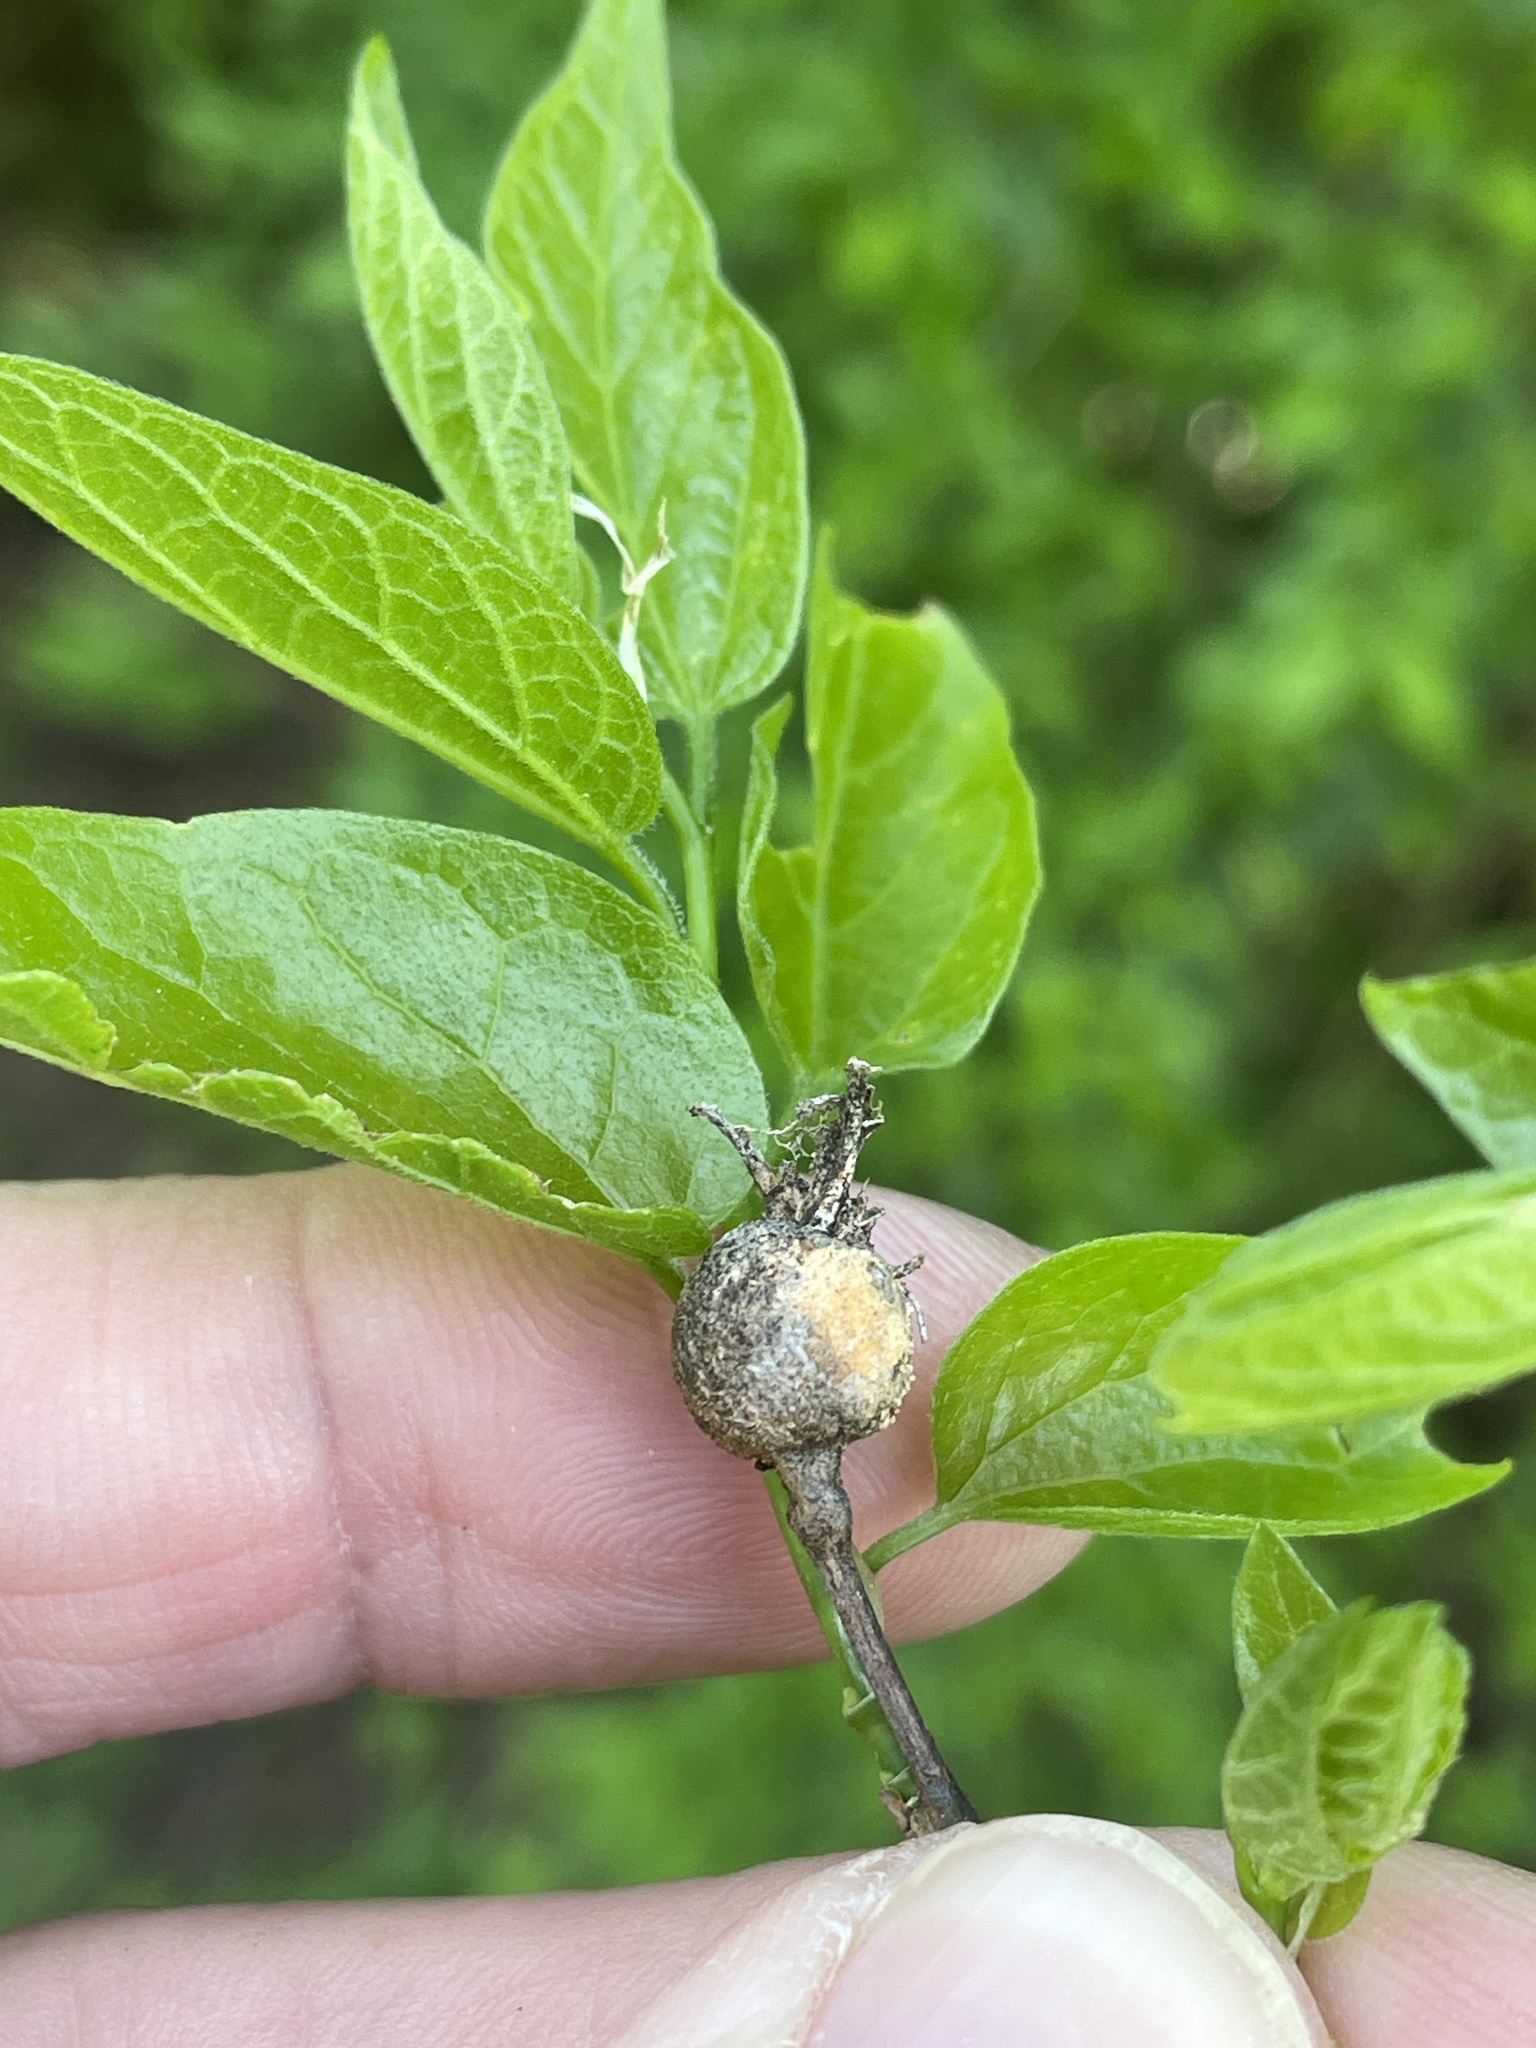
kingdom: Animalia
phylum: Arthropoda
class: Insecta
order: Hemiptera
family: Aphalaridae
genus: Pachypsylla
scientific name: Pachypsylla venusta
